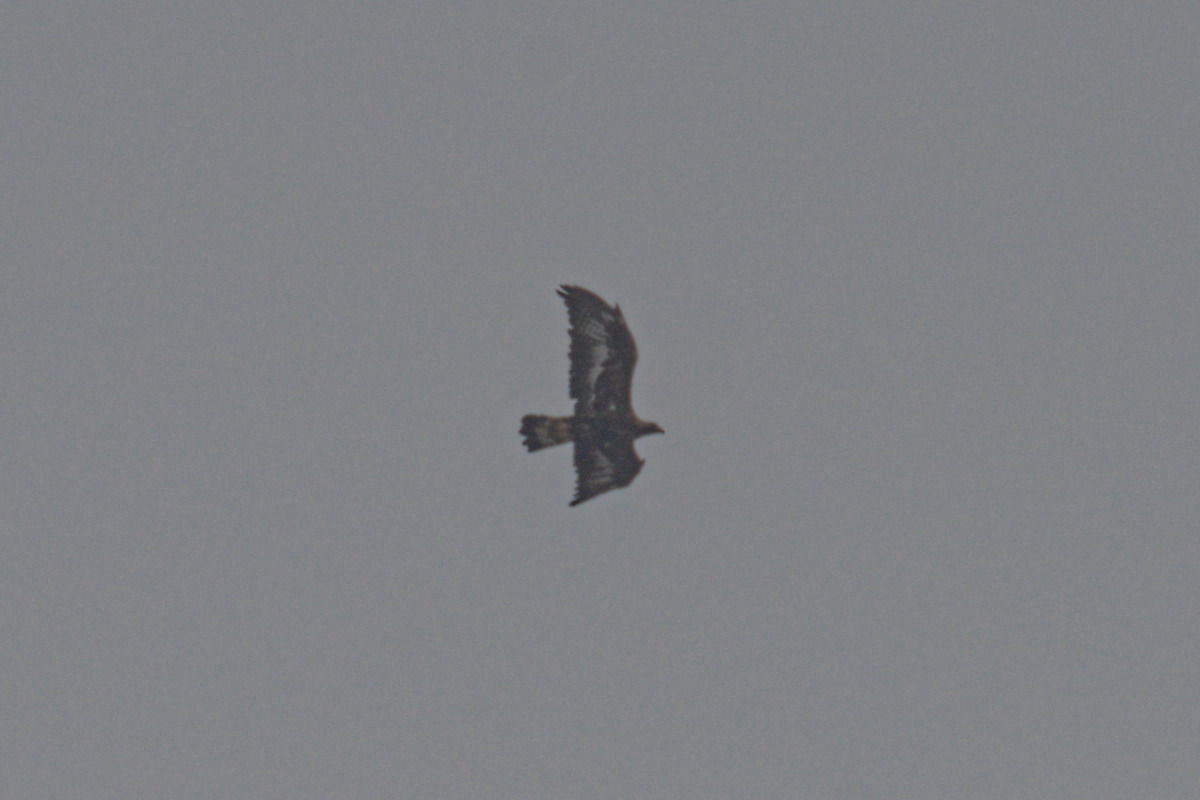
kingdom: Animalia
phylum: Chordata
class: Aves
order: Accipitriformes
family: Accipitridae
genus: Aquila
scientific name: Aquila chrysaetos
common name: Golden eagle
